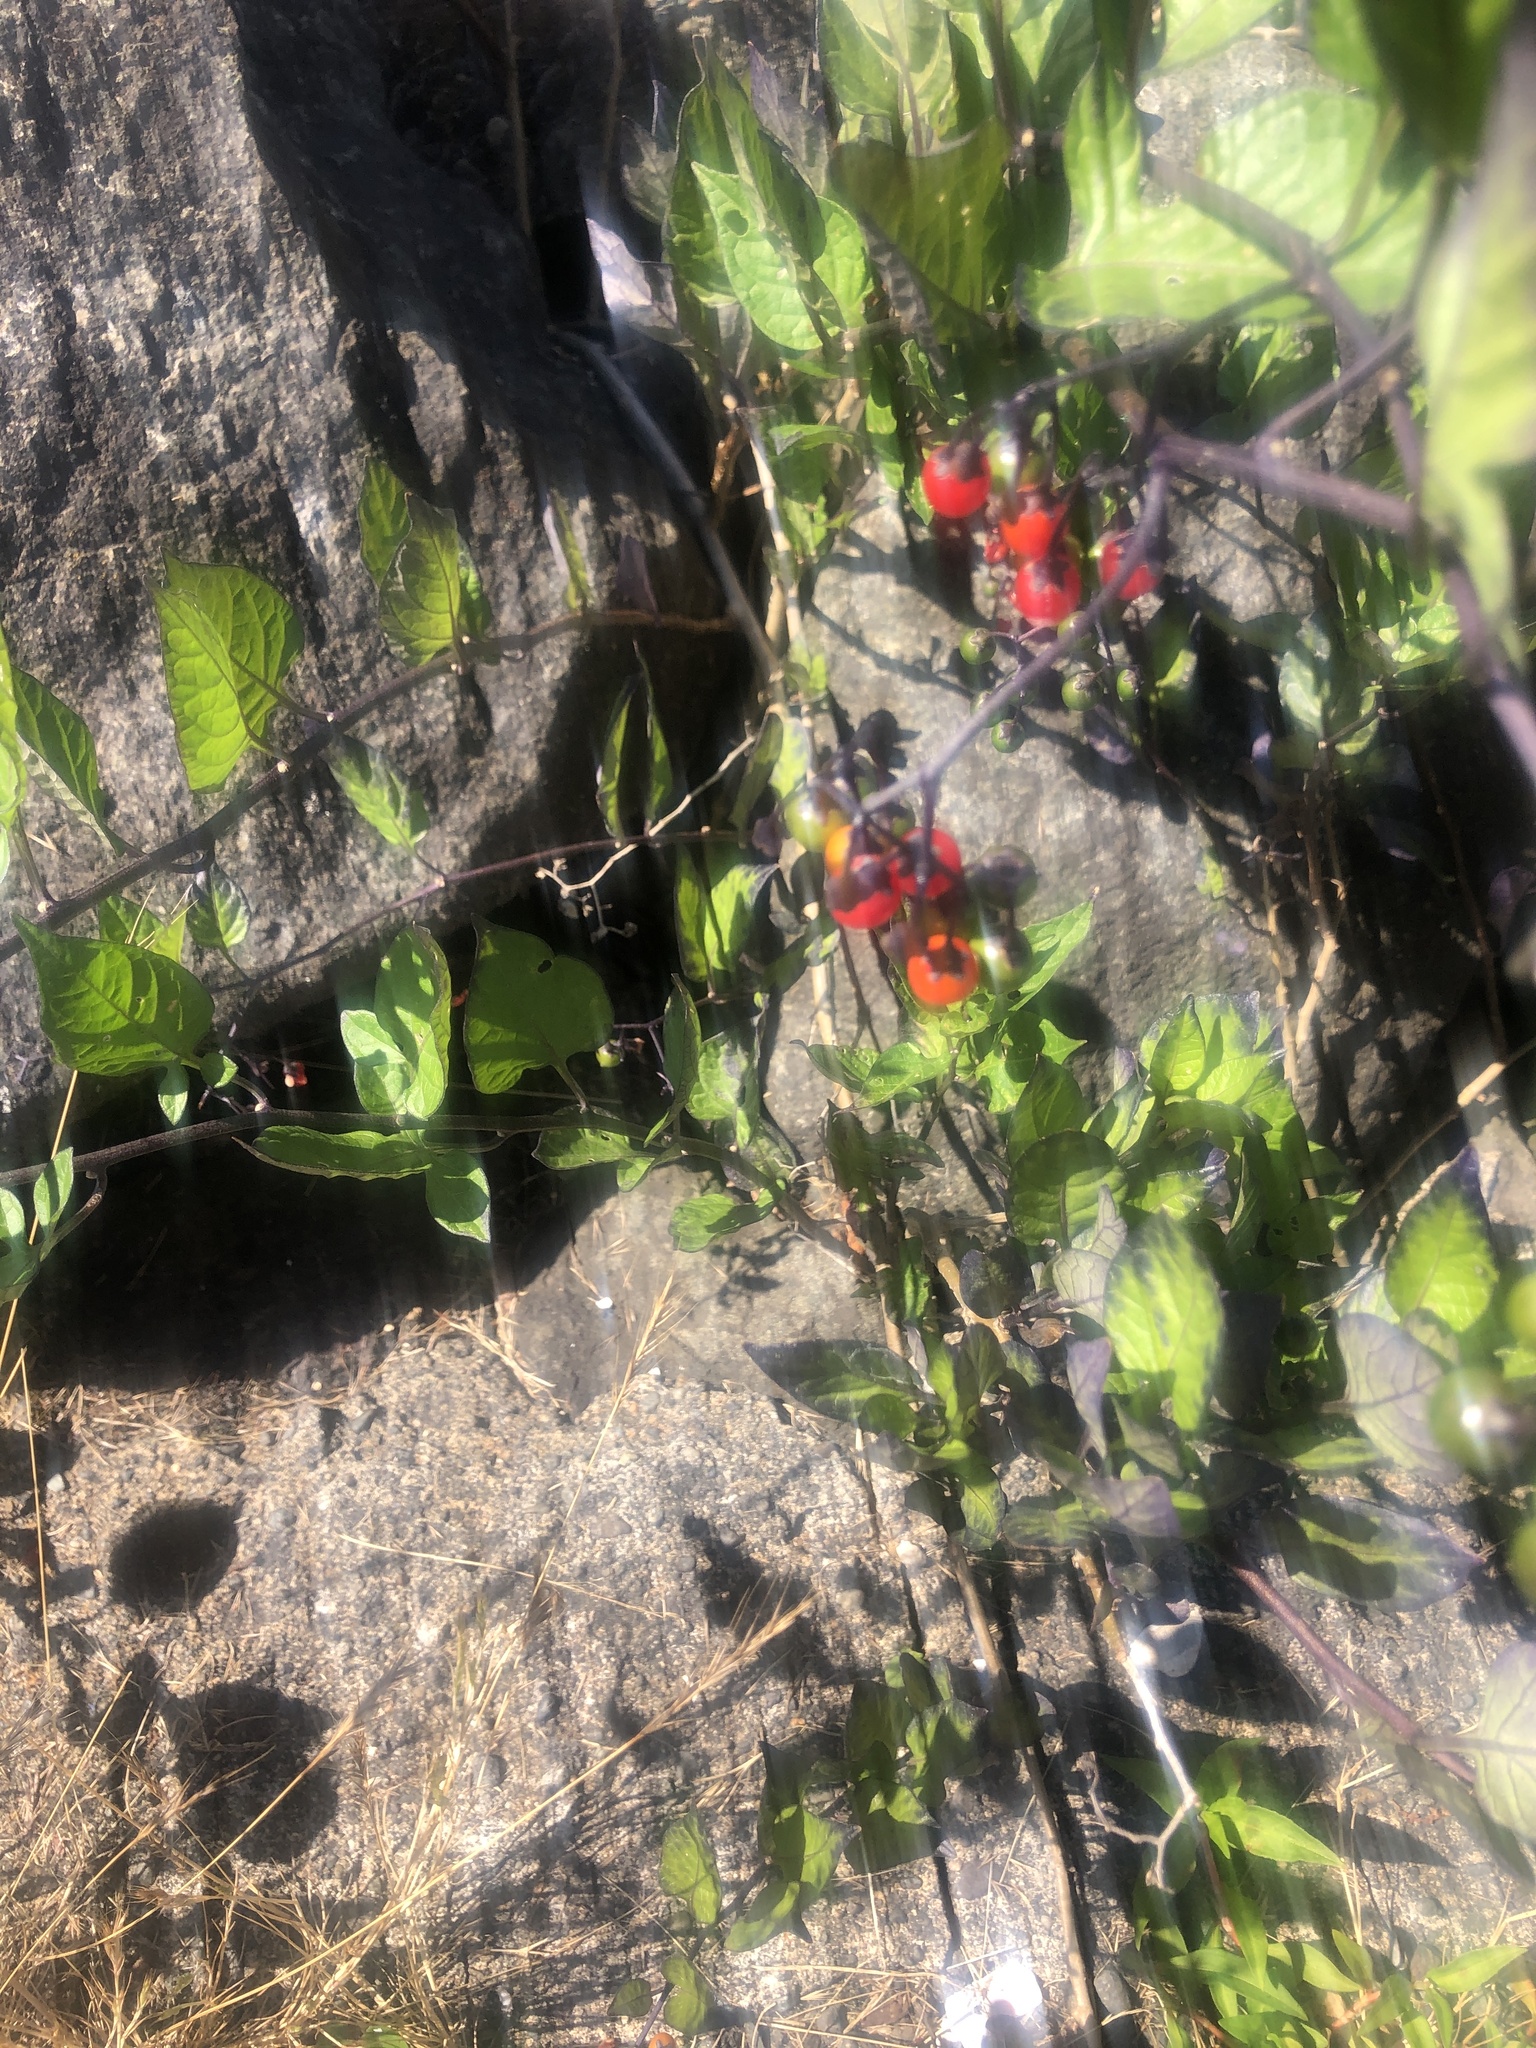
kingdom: Plantae
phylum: Tracheophyta
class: Magnoliopsida
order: Solanales
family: Solanaceae
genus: Solanum
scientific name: Solanum dulcamara
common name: Climbing nightshade
